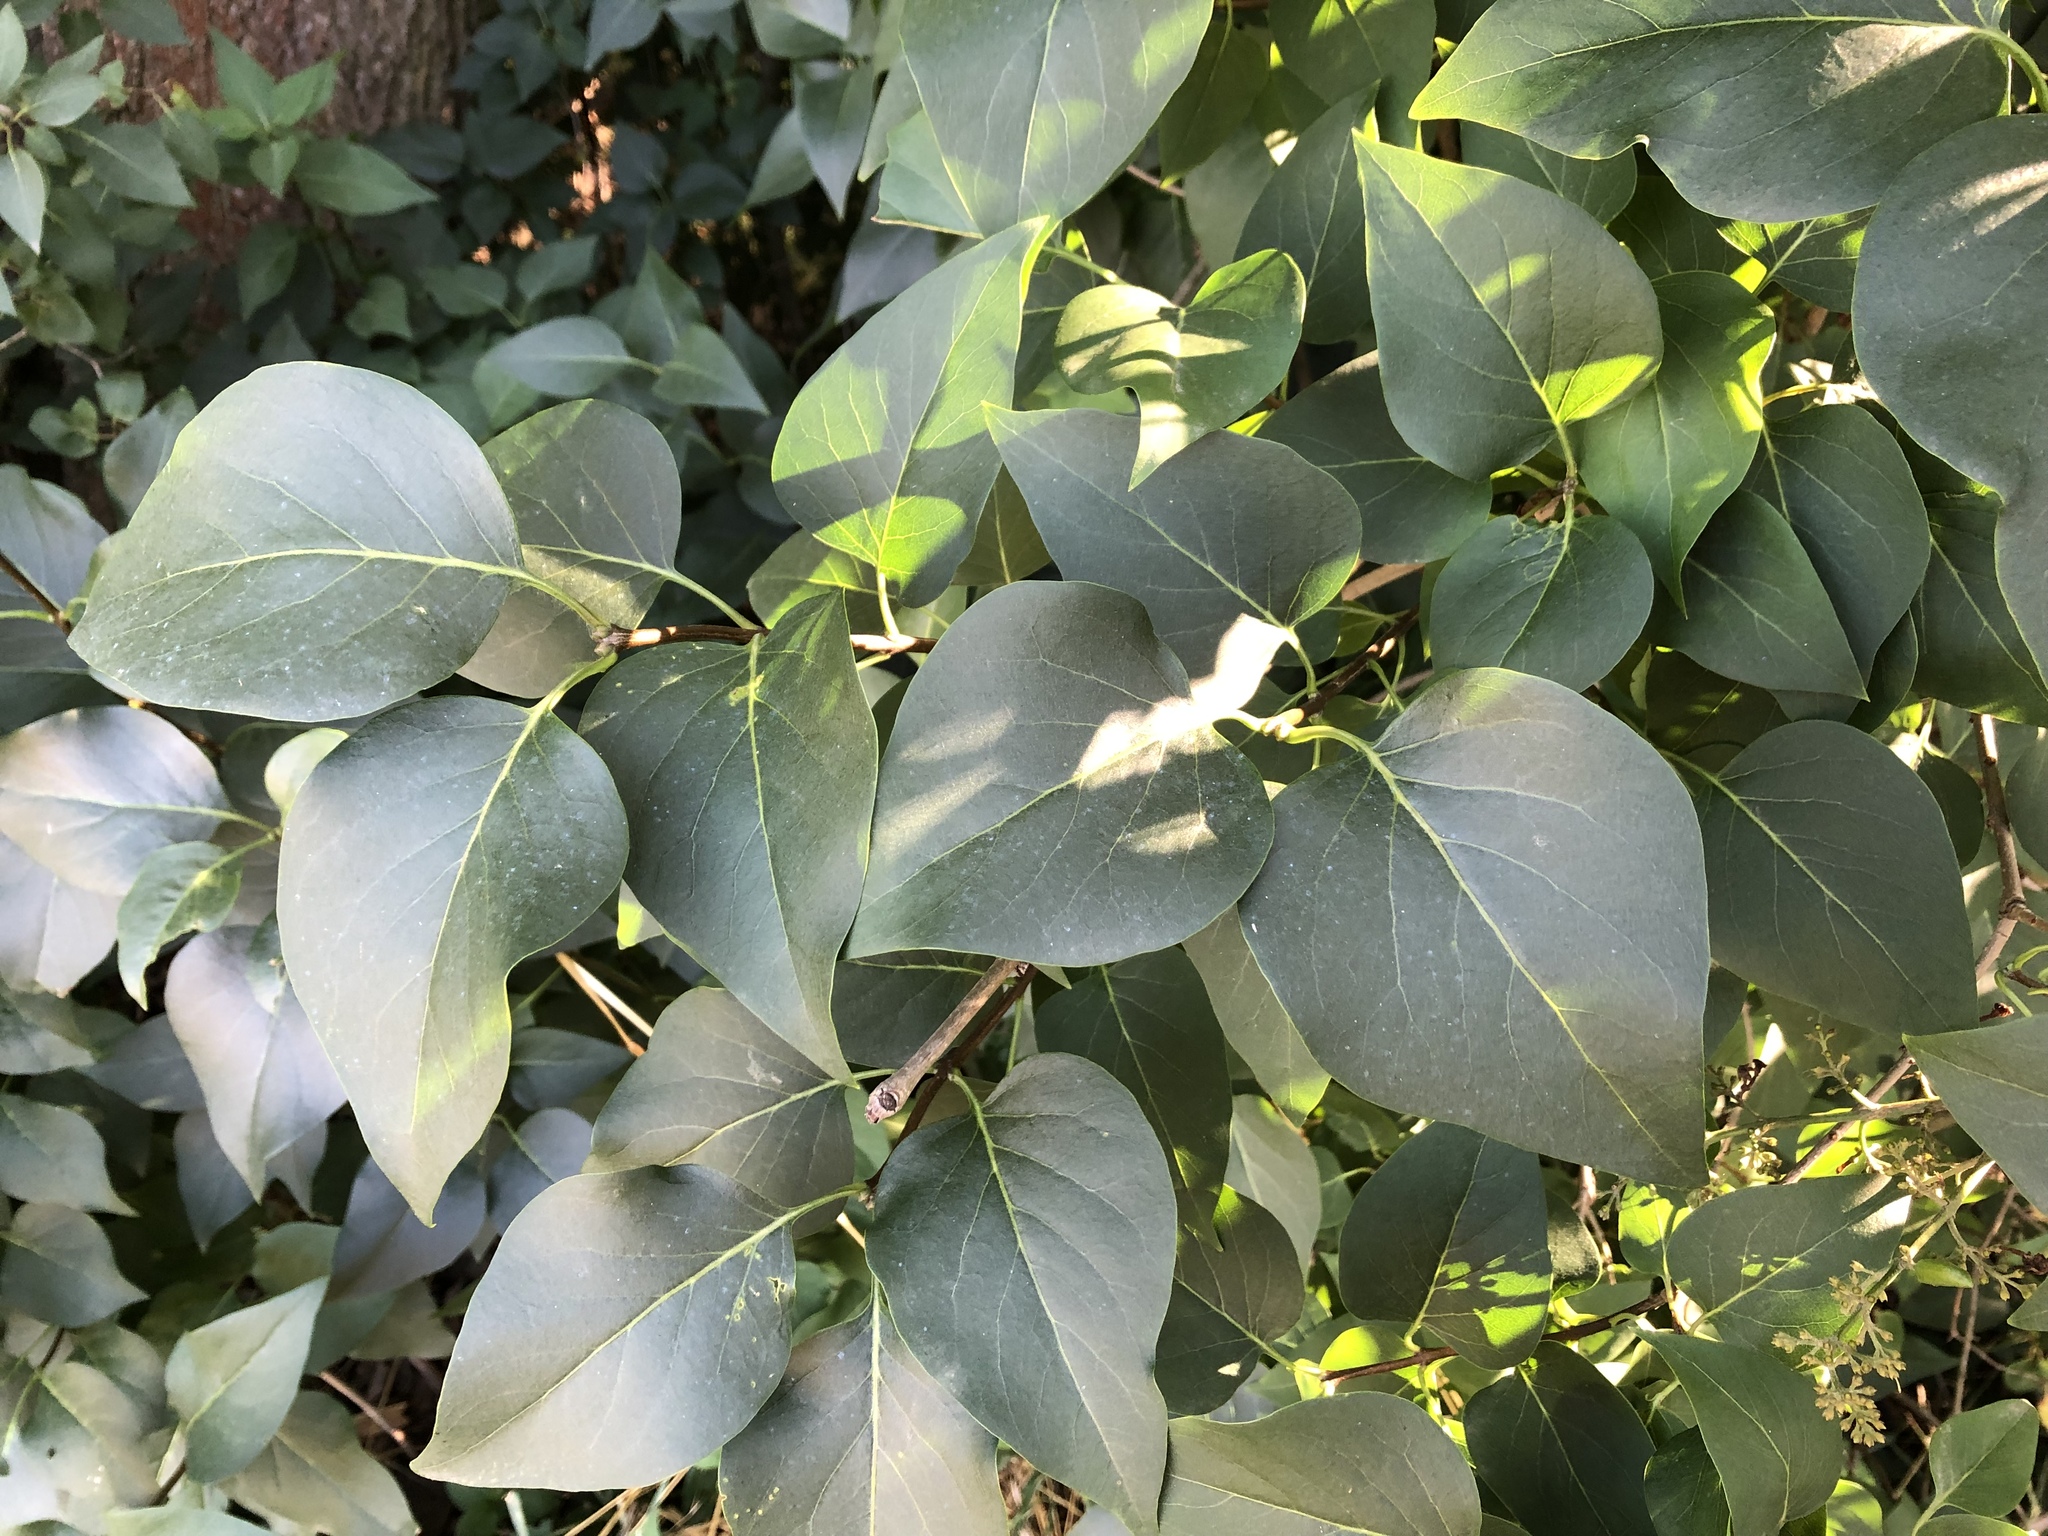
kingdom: Plantae
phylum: Tracheophyta
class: Magnoliopsida
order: Lamiales
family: Oleaceae
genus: Syringa
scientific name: Syringa vulgaris
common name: Common lilac
